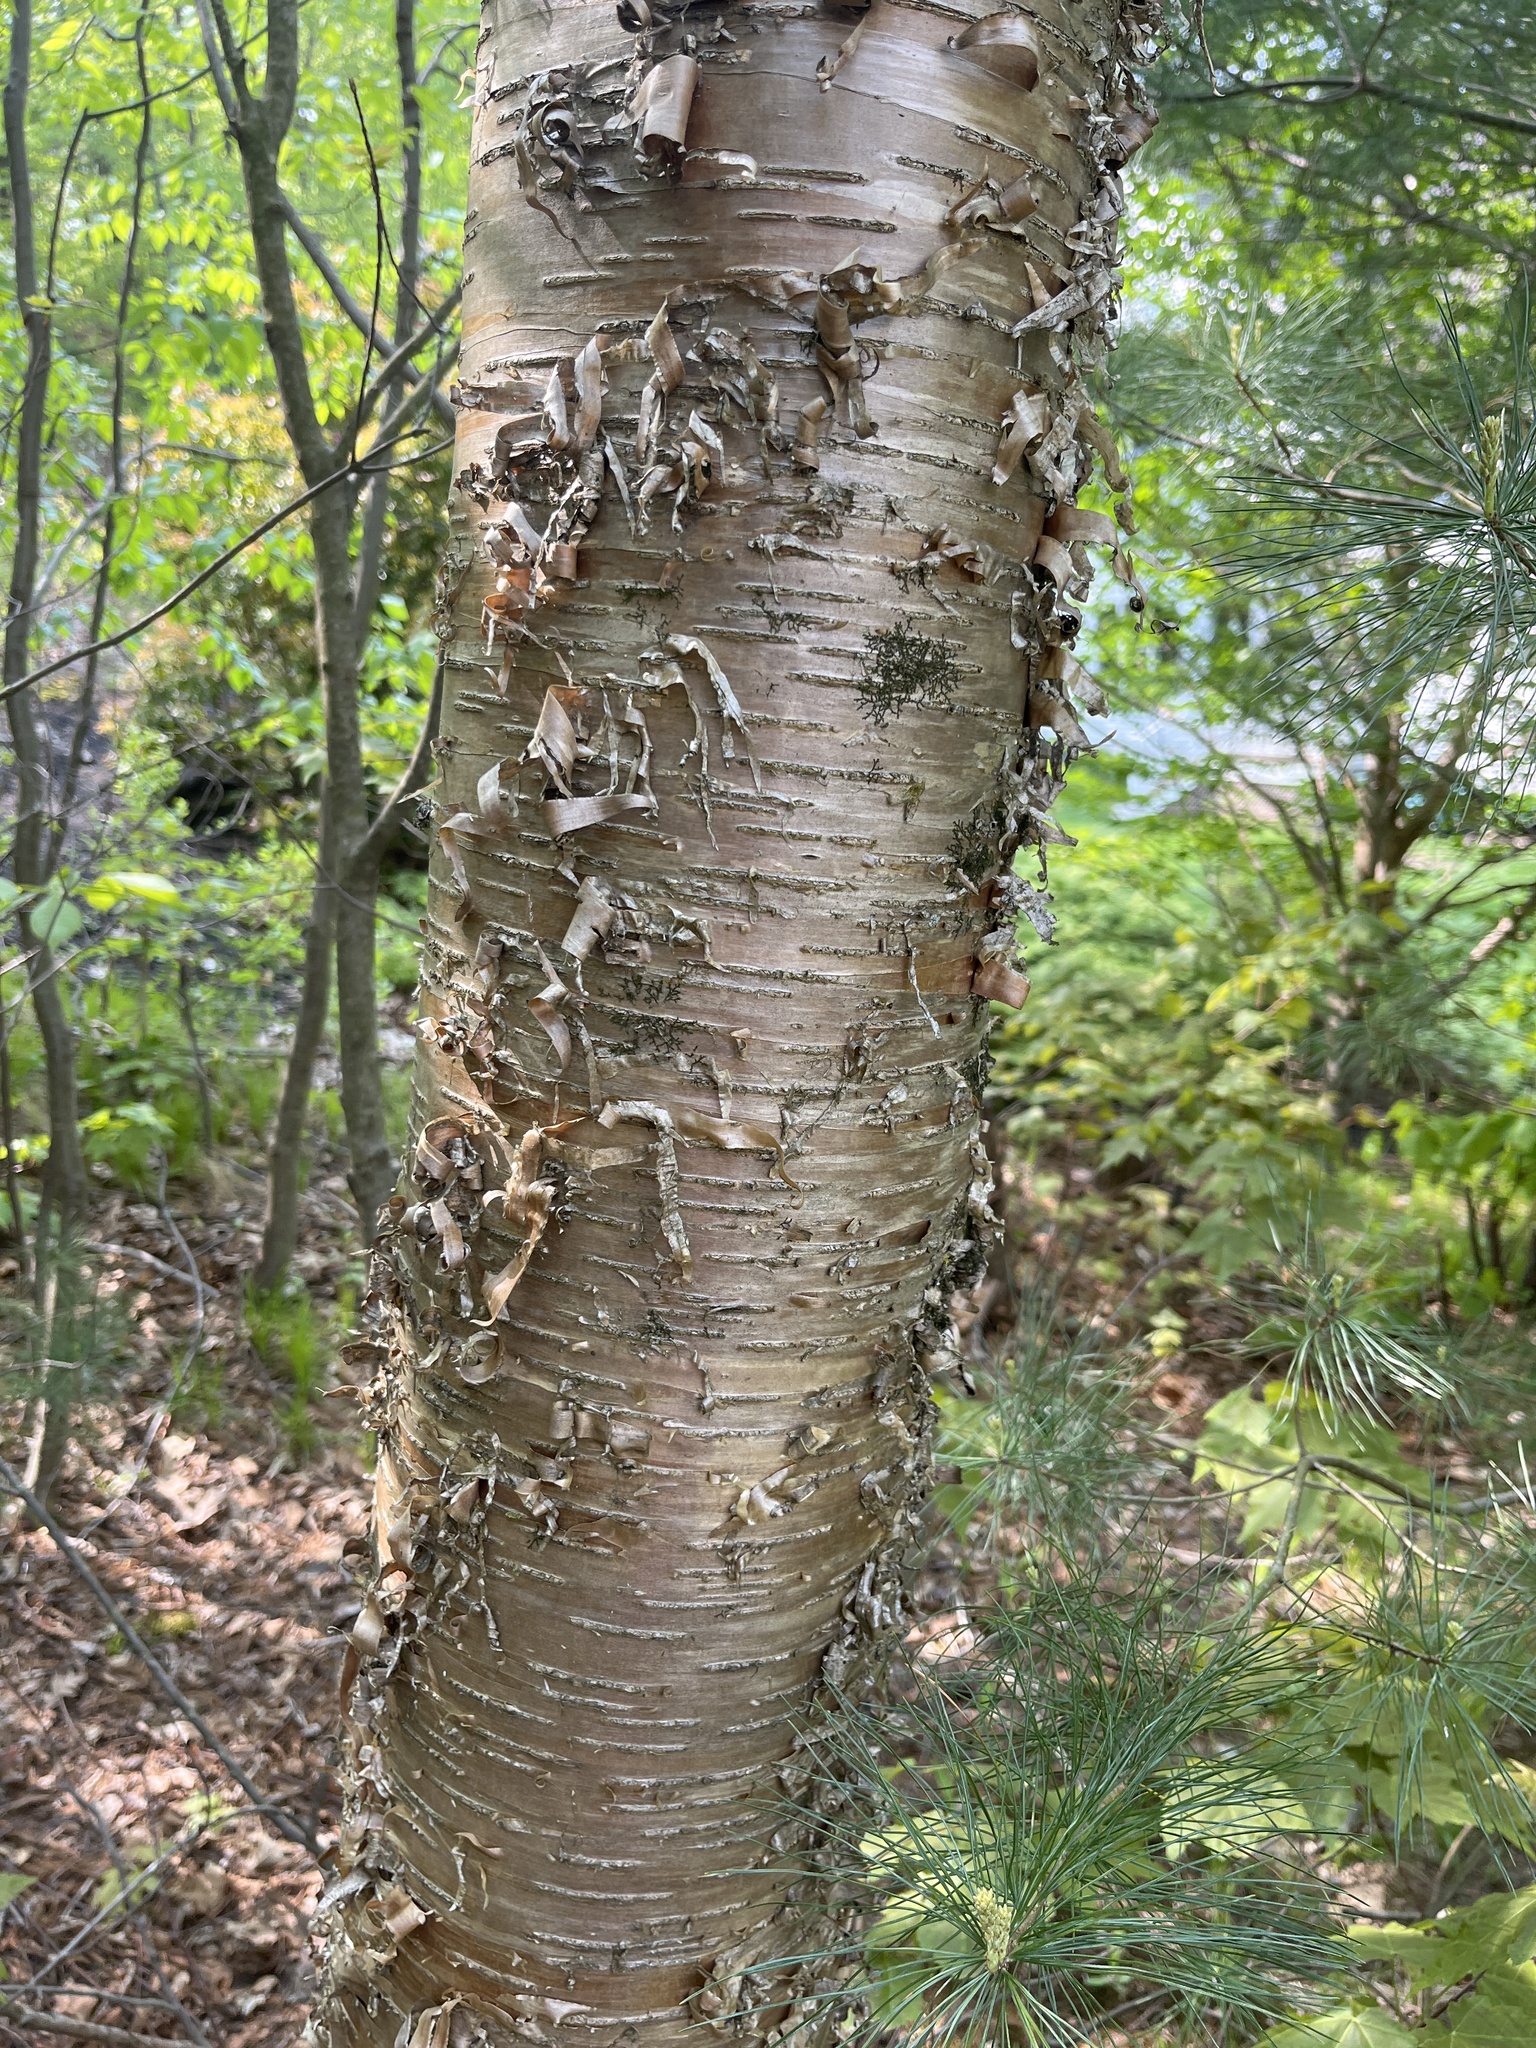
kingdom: Plantae
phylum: Tracheophyta
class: Magnoliopsida
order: Fagales
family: Betulaceae
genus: Betula
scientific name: Betula alleghaniensis
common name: Yellow birch
